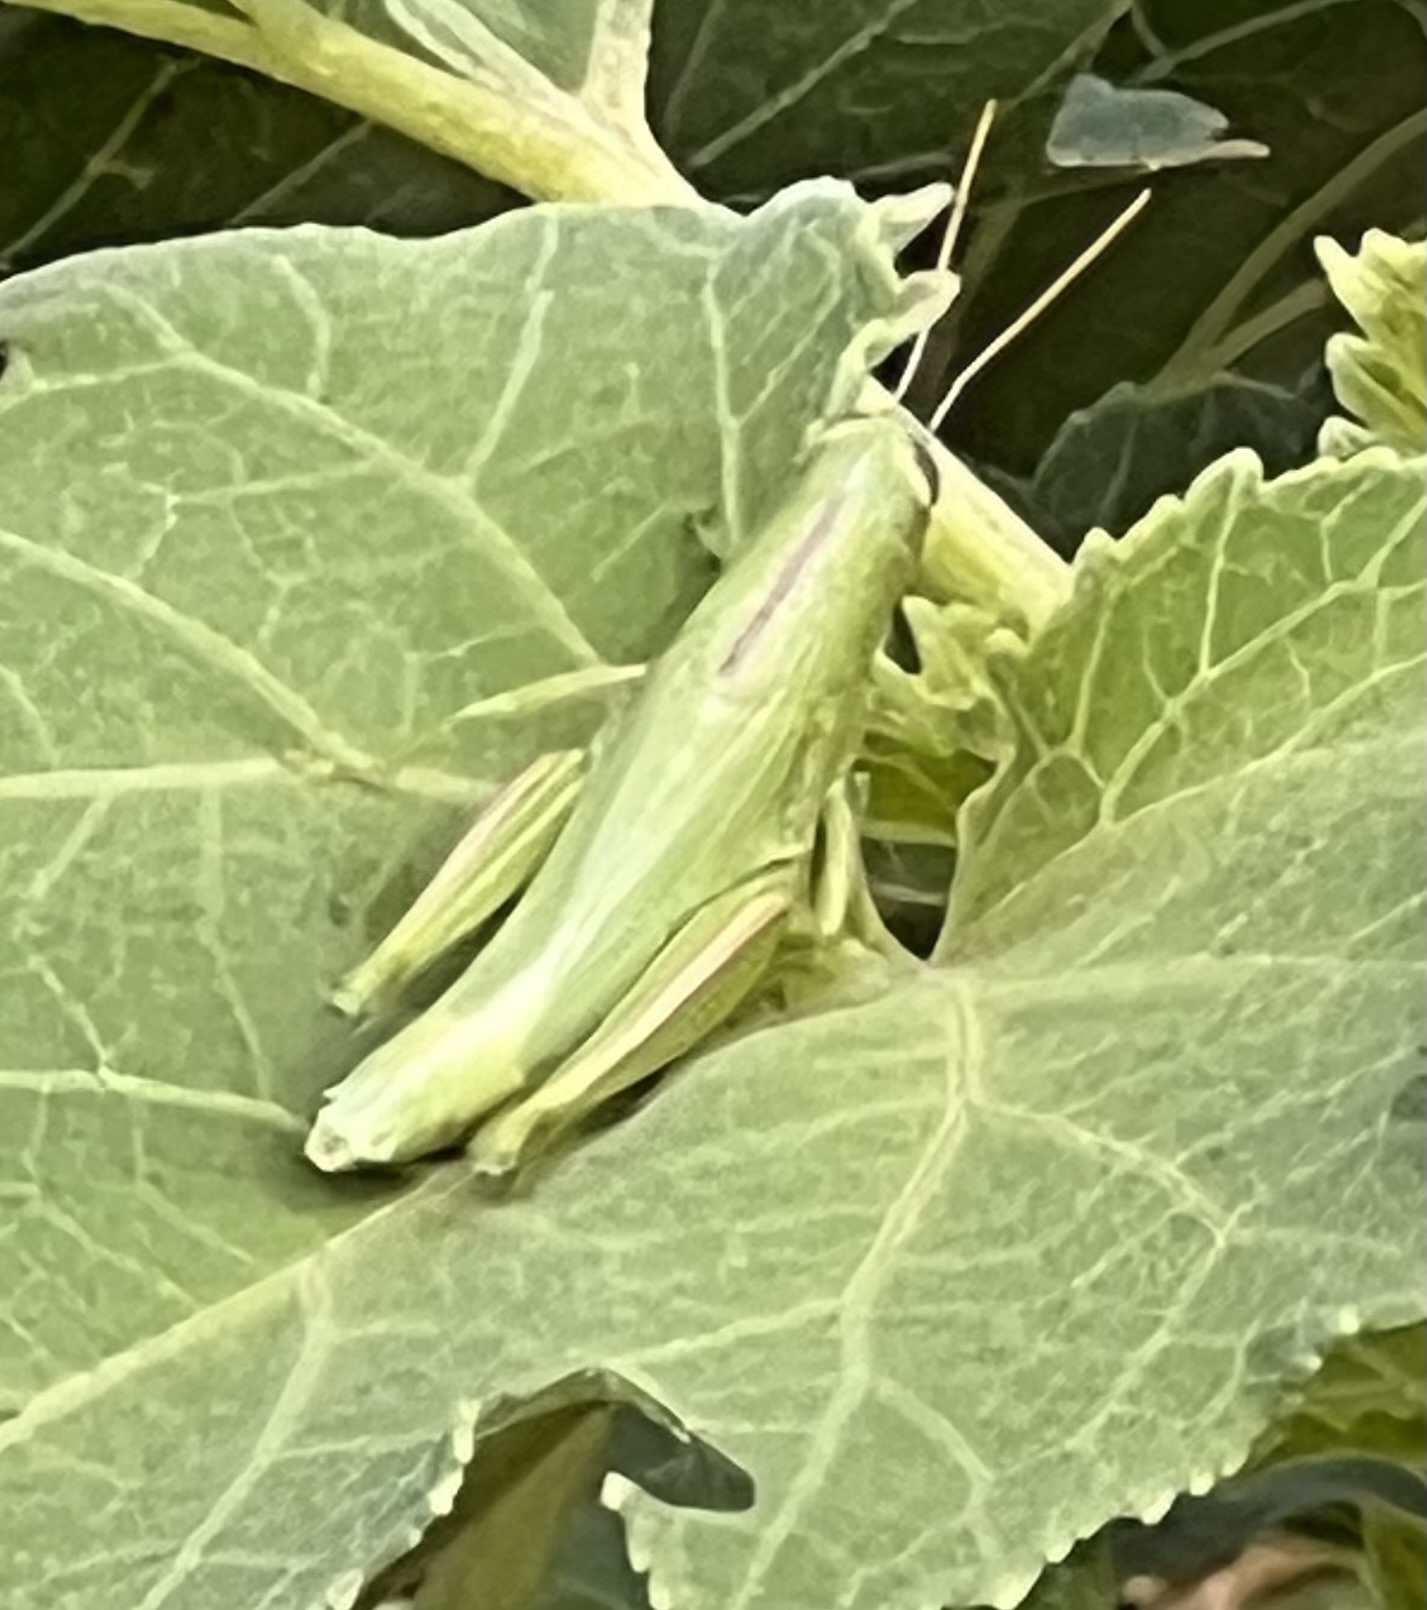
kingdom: Animalia
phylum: Arthropoda
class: Insecta
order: Orthoptera
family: Acrididae
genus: Hesperotettix
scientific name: Hesperotettix speciosus
